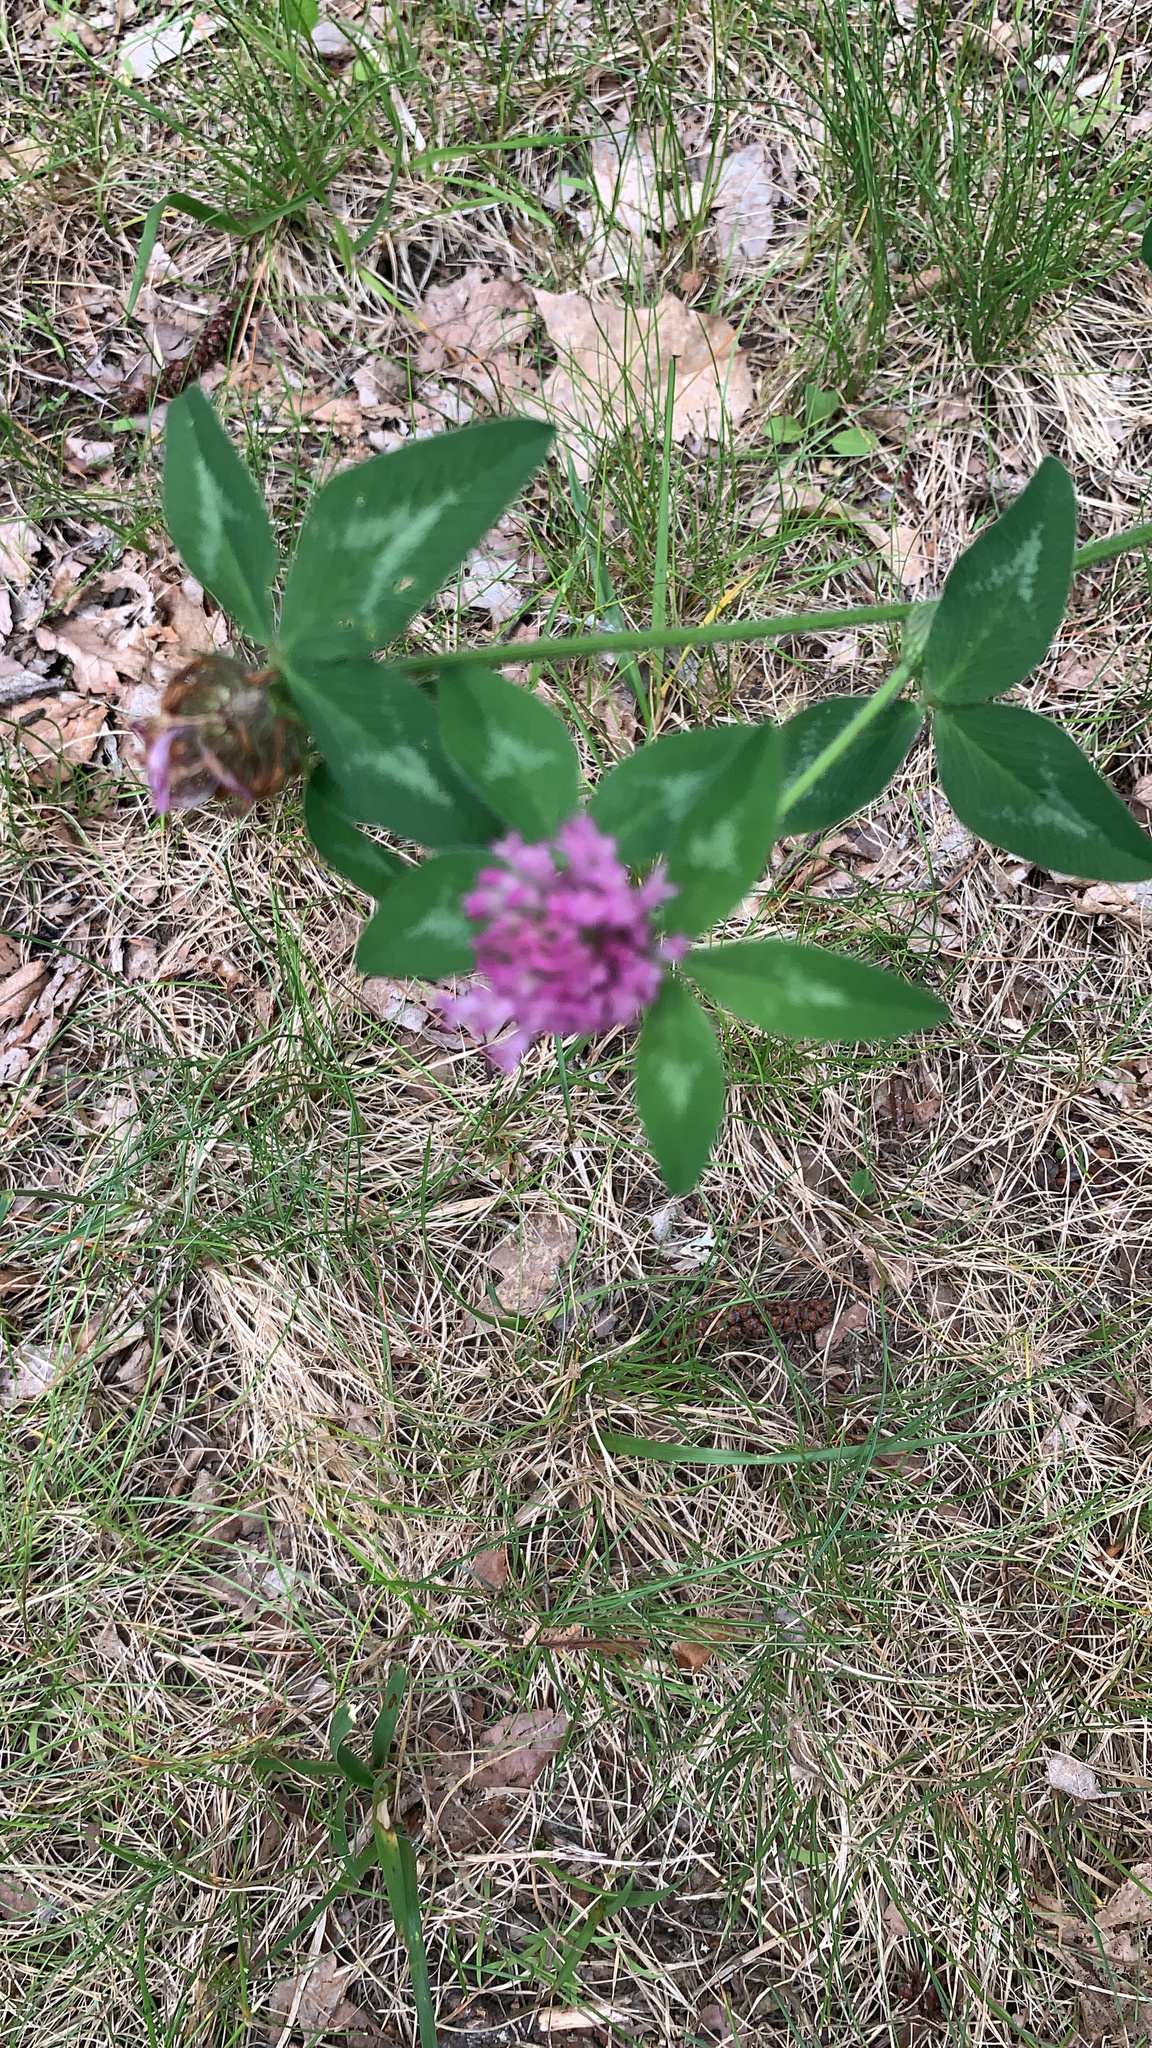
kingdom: Plantae
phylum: Tracheophyta
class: Magnoliopsida
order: Fabales
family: Fabaceae
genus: Trifolium
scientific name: Trifolium pratense
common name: Red clover
